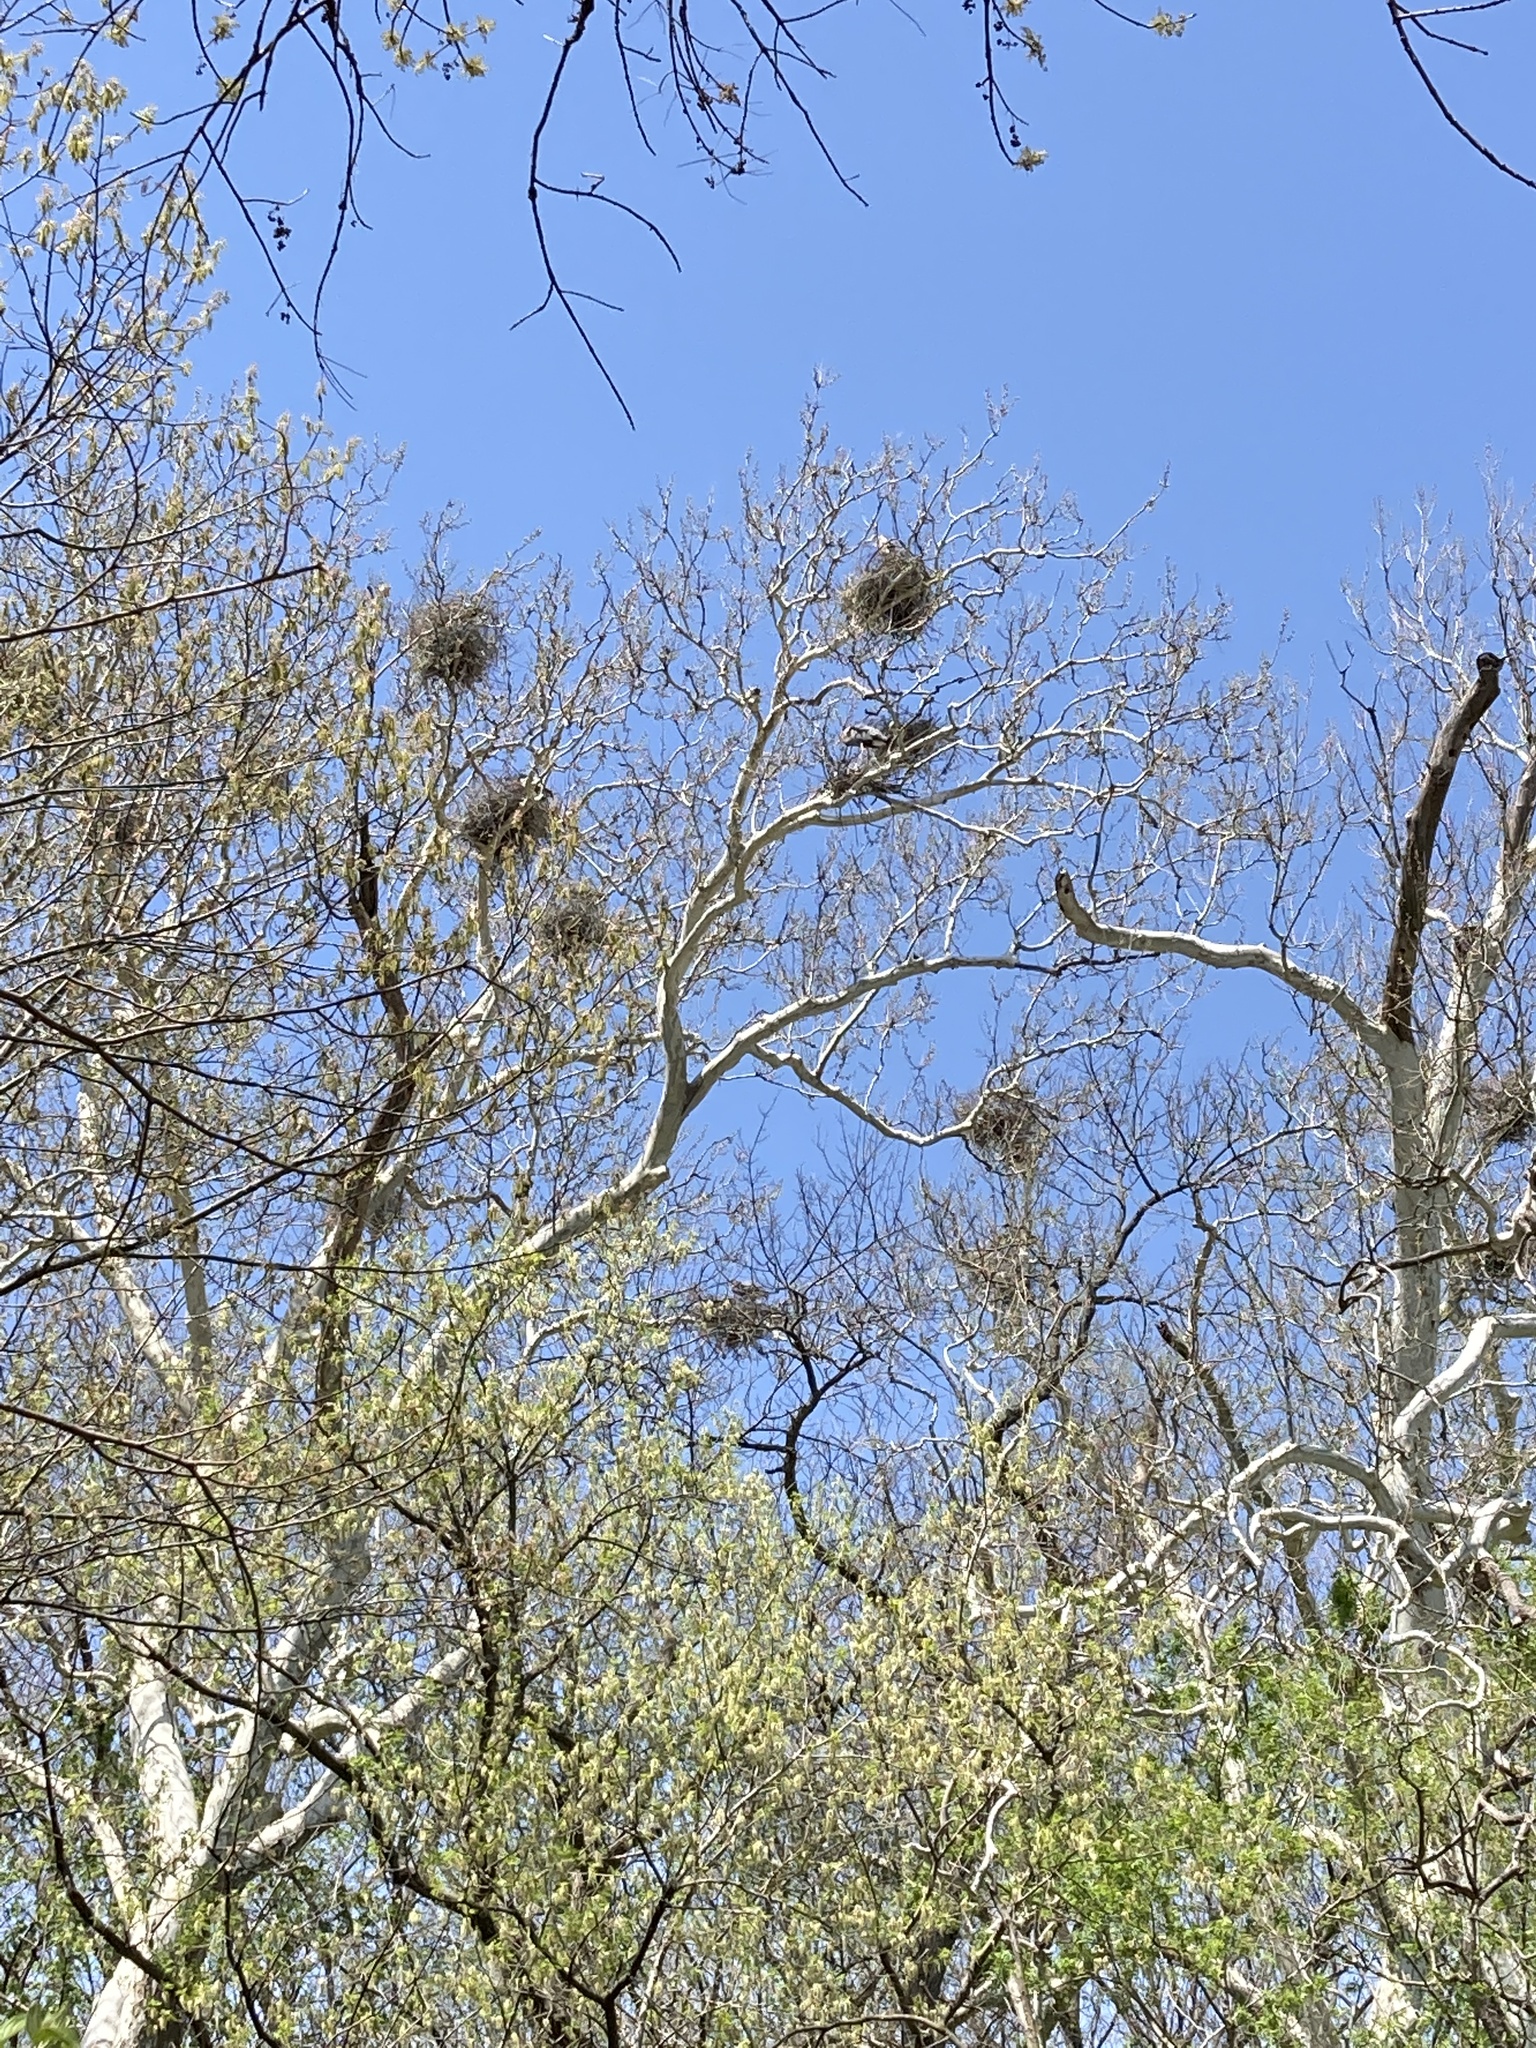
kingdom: Animalia
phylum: Chordata
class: Aves
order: Pelecaniformes
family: Ardeidae
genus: Ardea
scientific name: Ardea herodias
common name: Great blue heron
